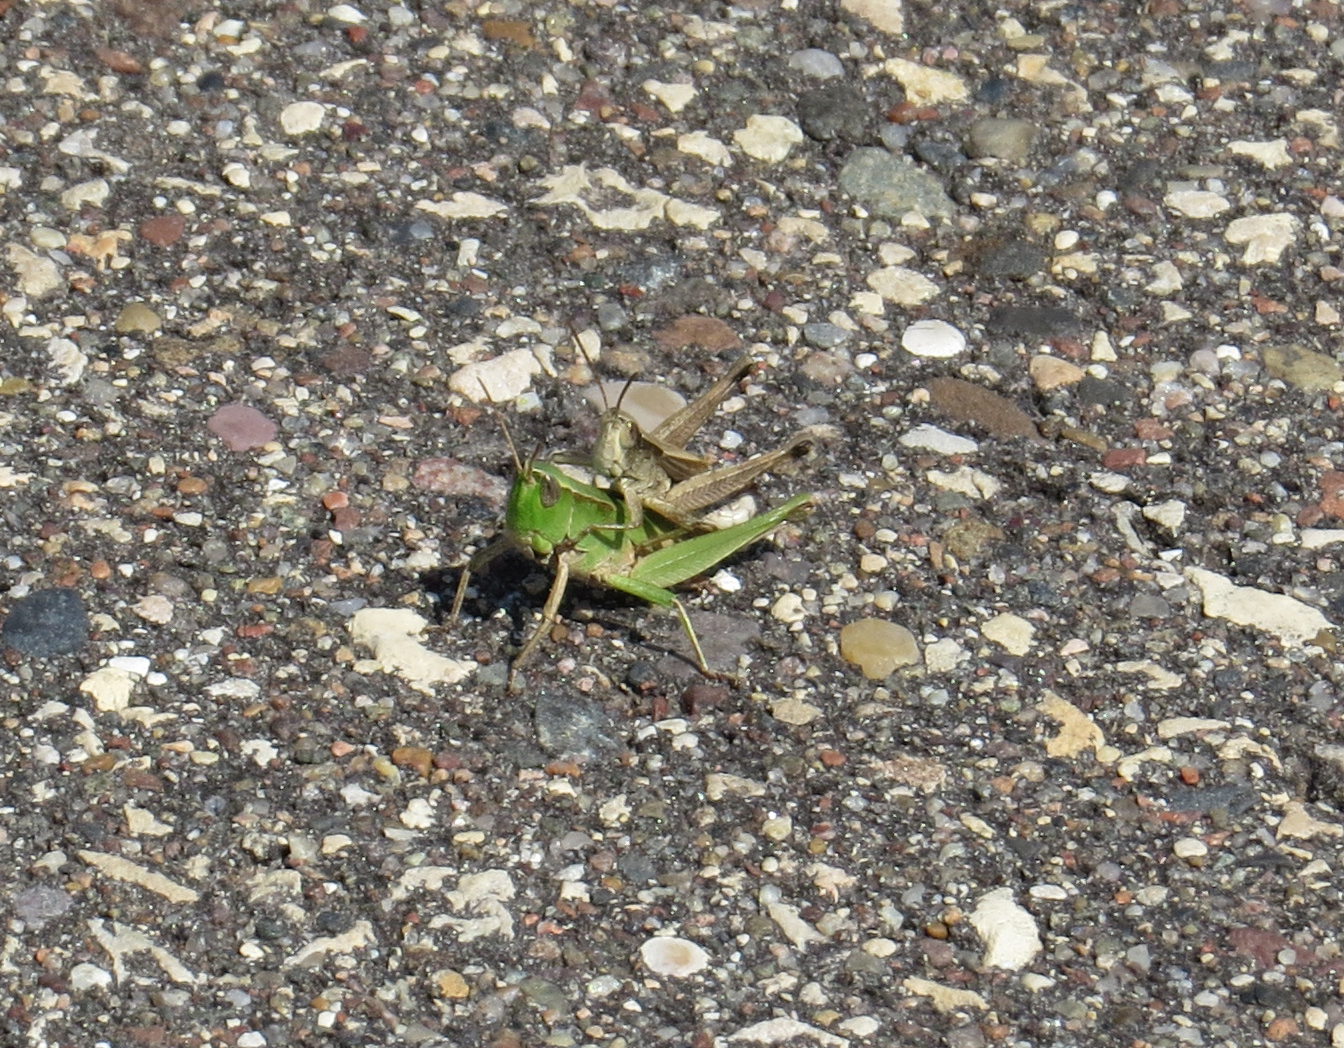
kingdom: Animalia
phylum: Arthropoda
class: Insecta
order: Orthoptera
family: Acrididae
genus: Dichromorpha
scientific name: Dichromorpha viridis
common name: Short-winged green grasshopper
